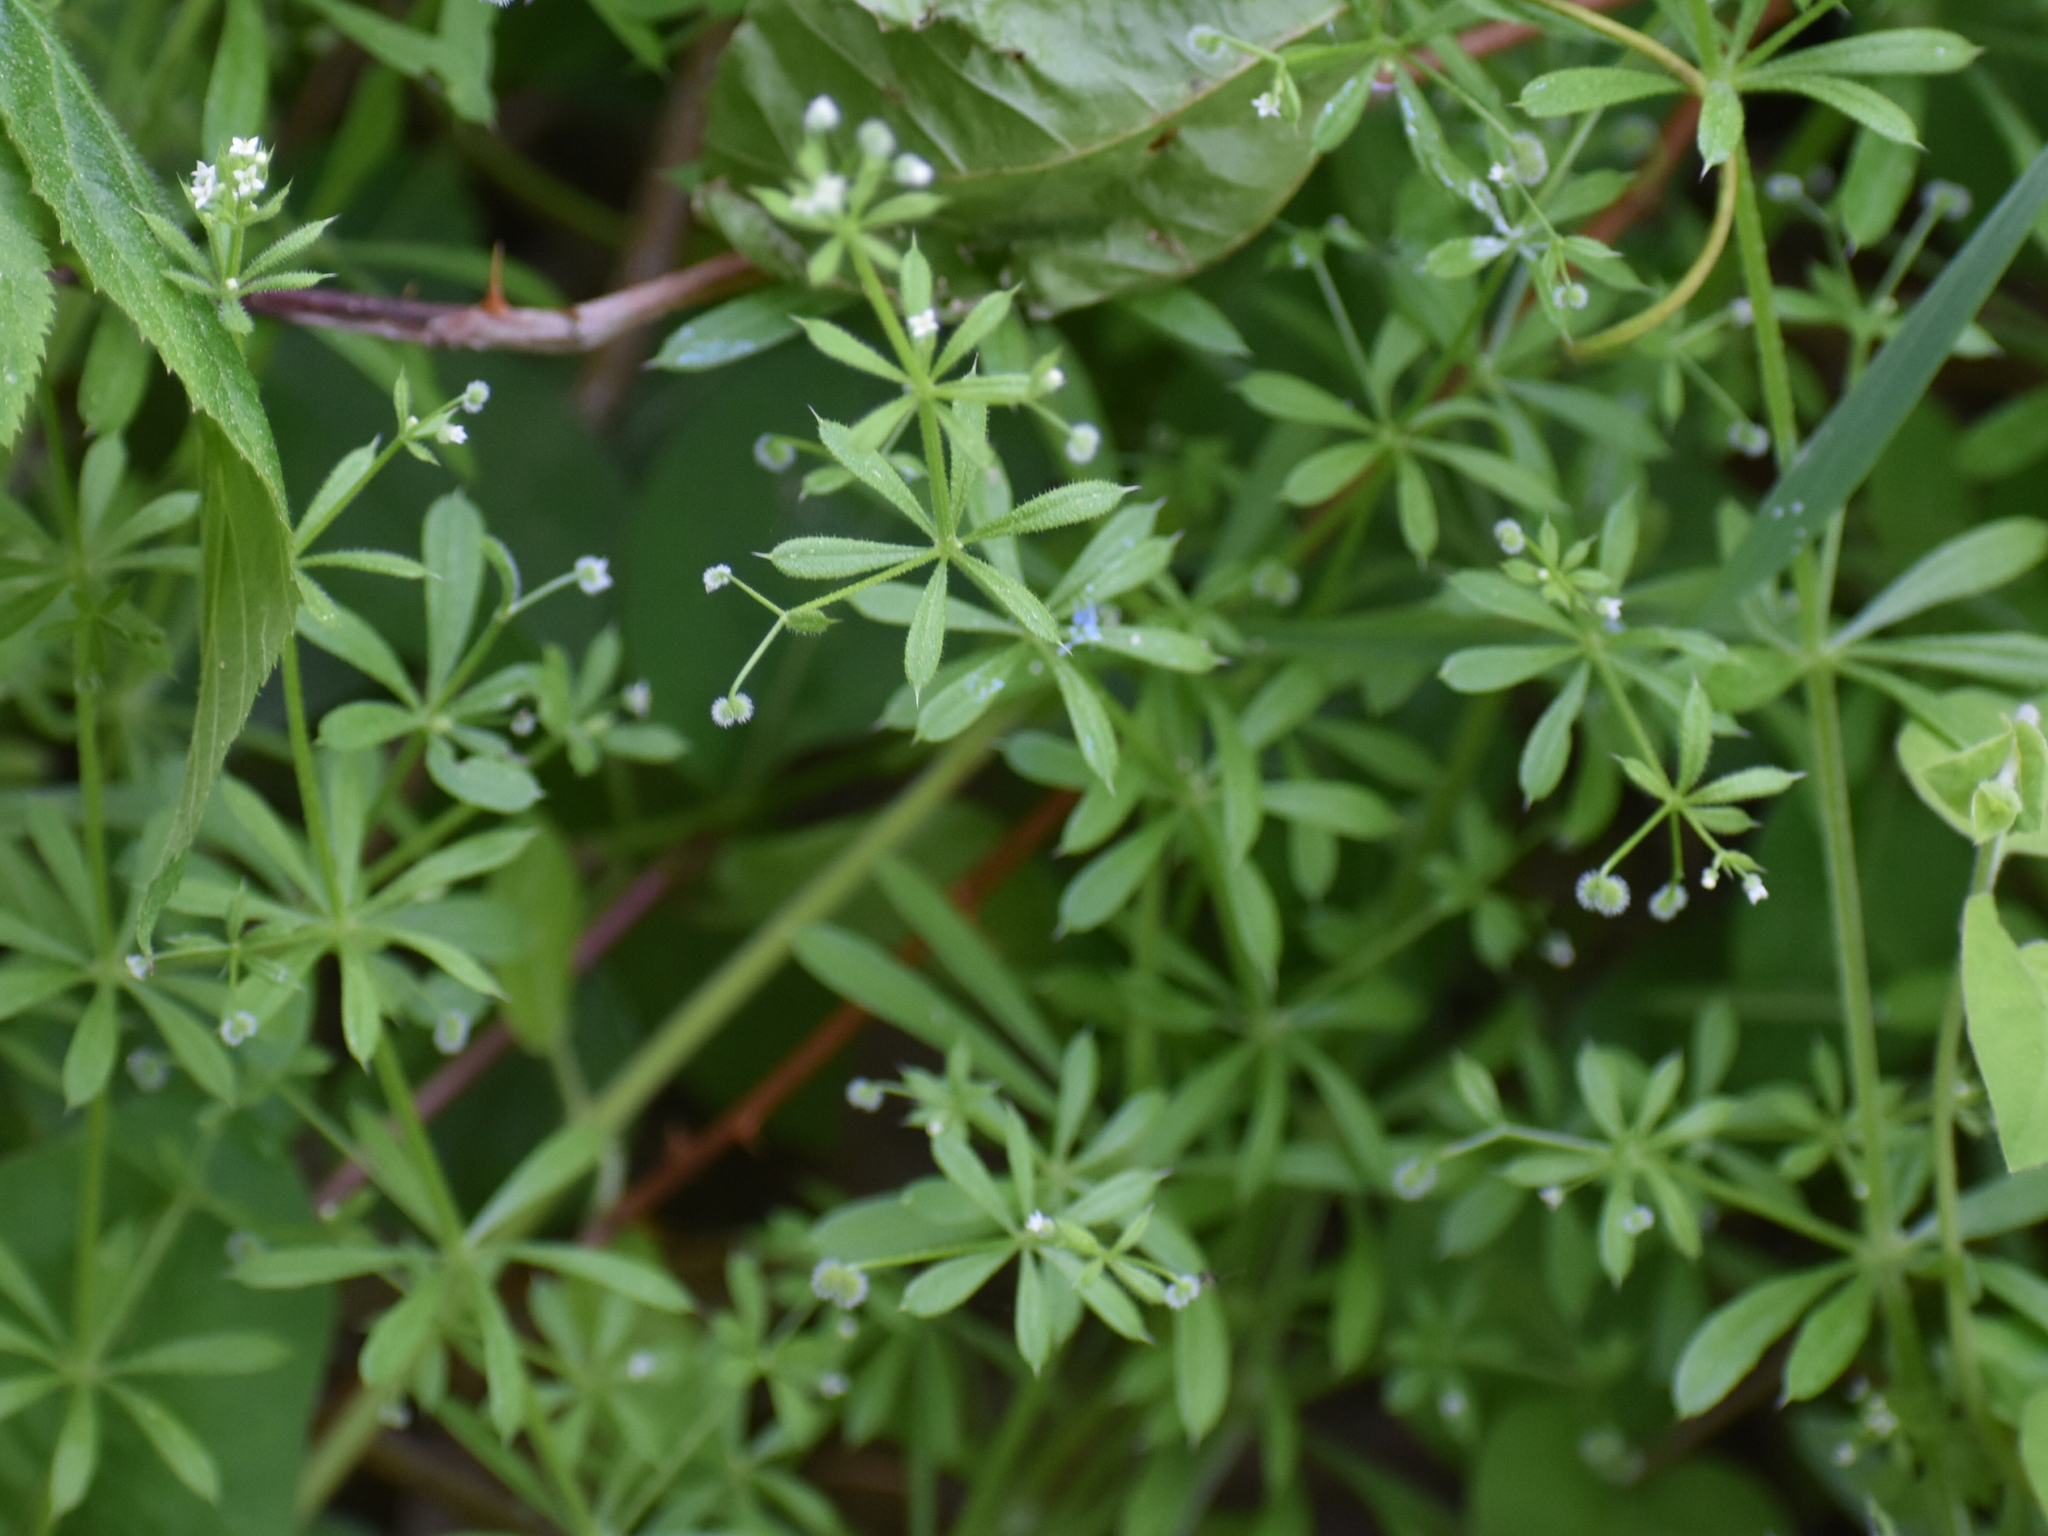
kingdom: Plantae
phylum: Tracheophyta
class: Magnoliopsida
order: Gentianales
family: Rubiaceae
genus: Galium
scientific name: Galium aparine
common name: Cleavers
